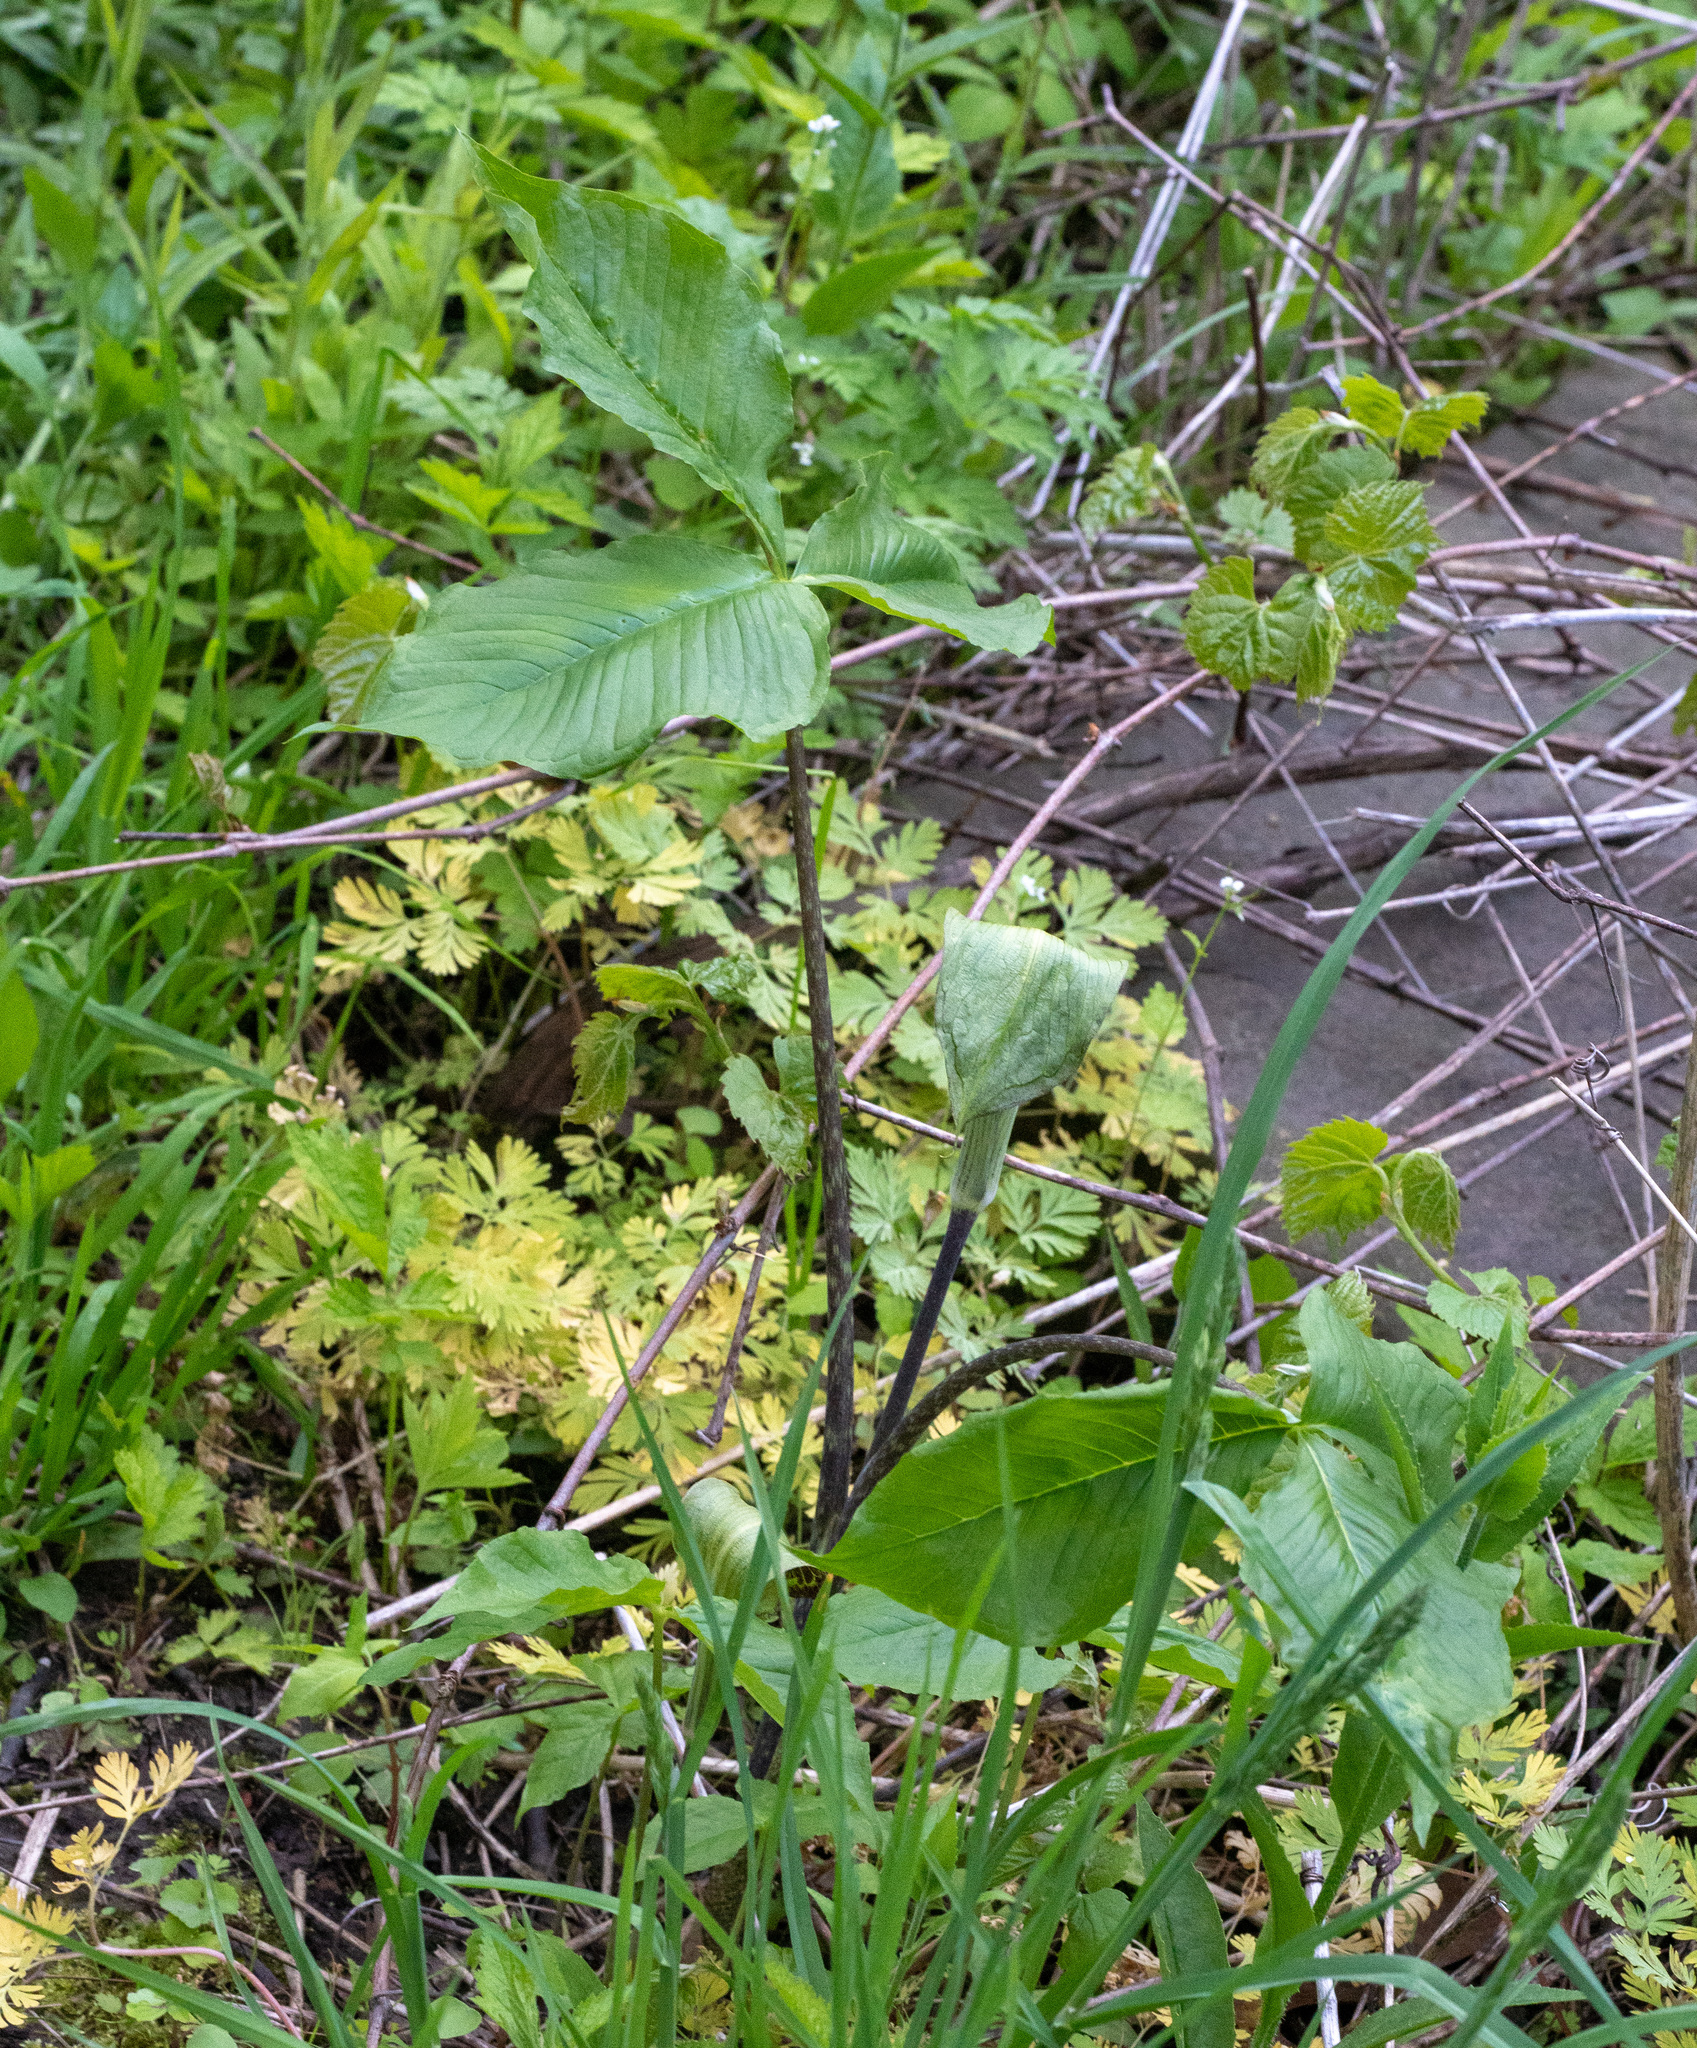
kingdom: Plantae
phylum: Tracheophyta
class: Liliopsida
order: Alismatales
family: Araceae
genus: Arisaema
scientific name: Arisaema triphyllum
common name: Jack-in-the-pulpit
